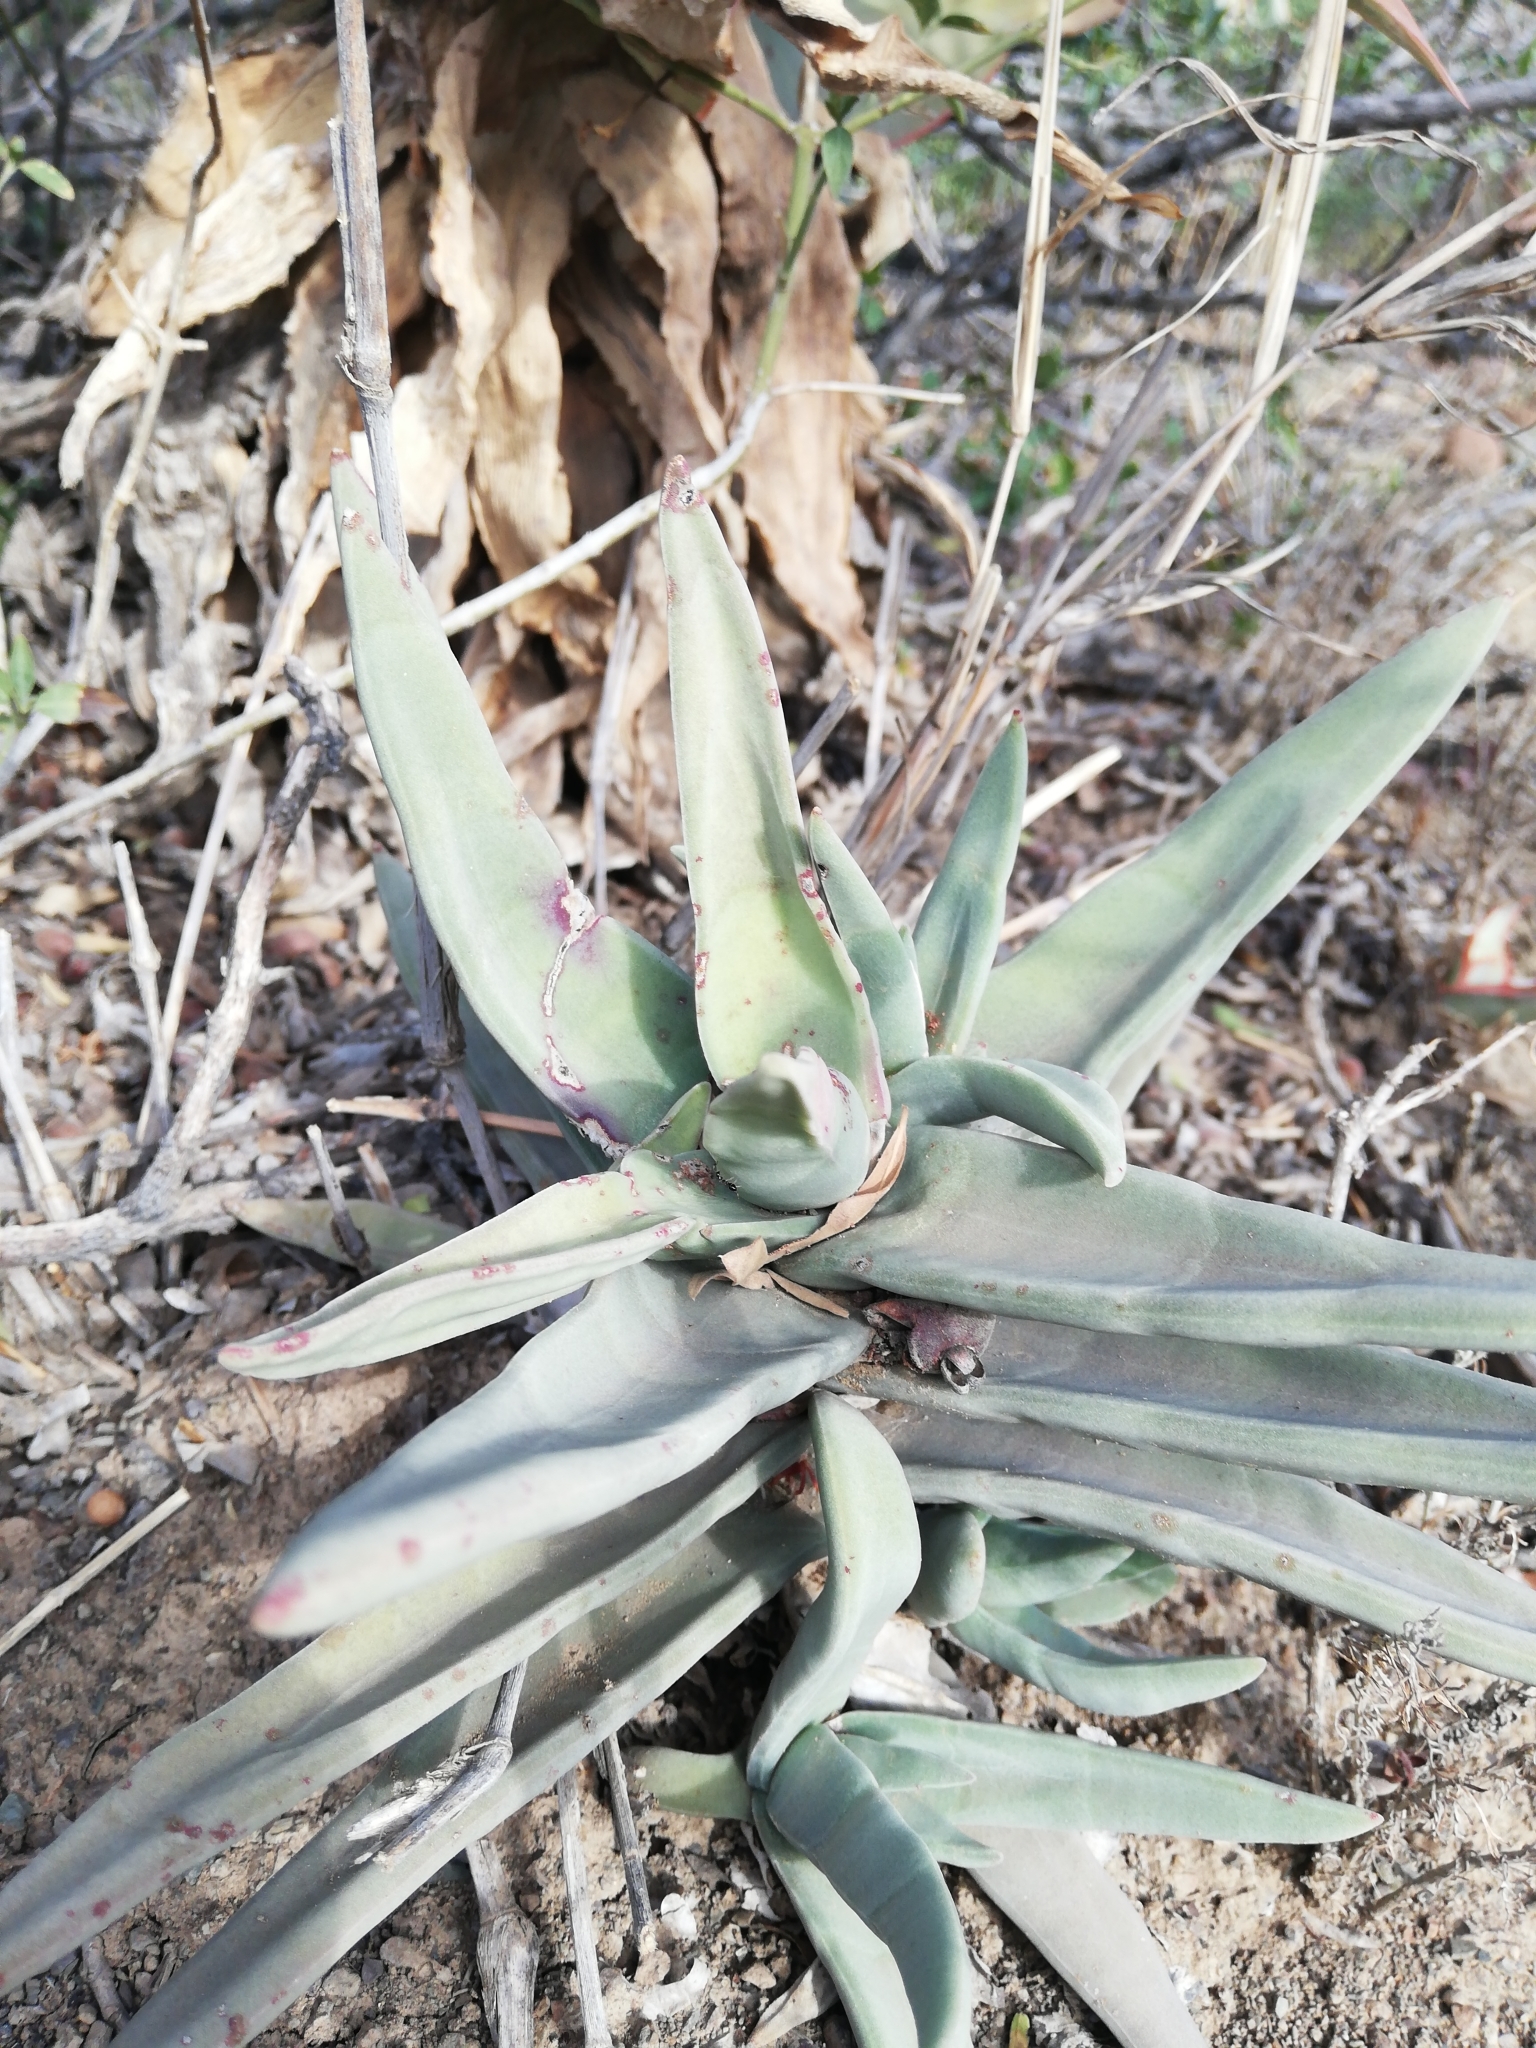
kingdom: Plantae
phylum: Tracheophyta
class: Magnoliopsida
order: Saxifragales
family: Crassulaceae
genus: Crassula
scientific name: Crassula perfoliata
